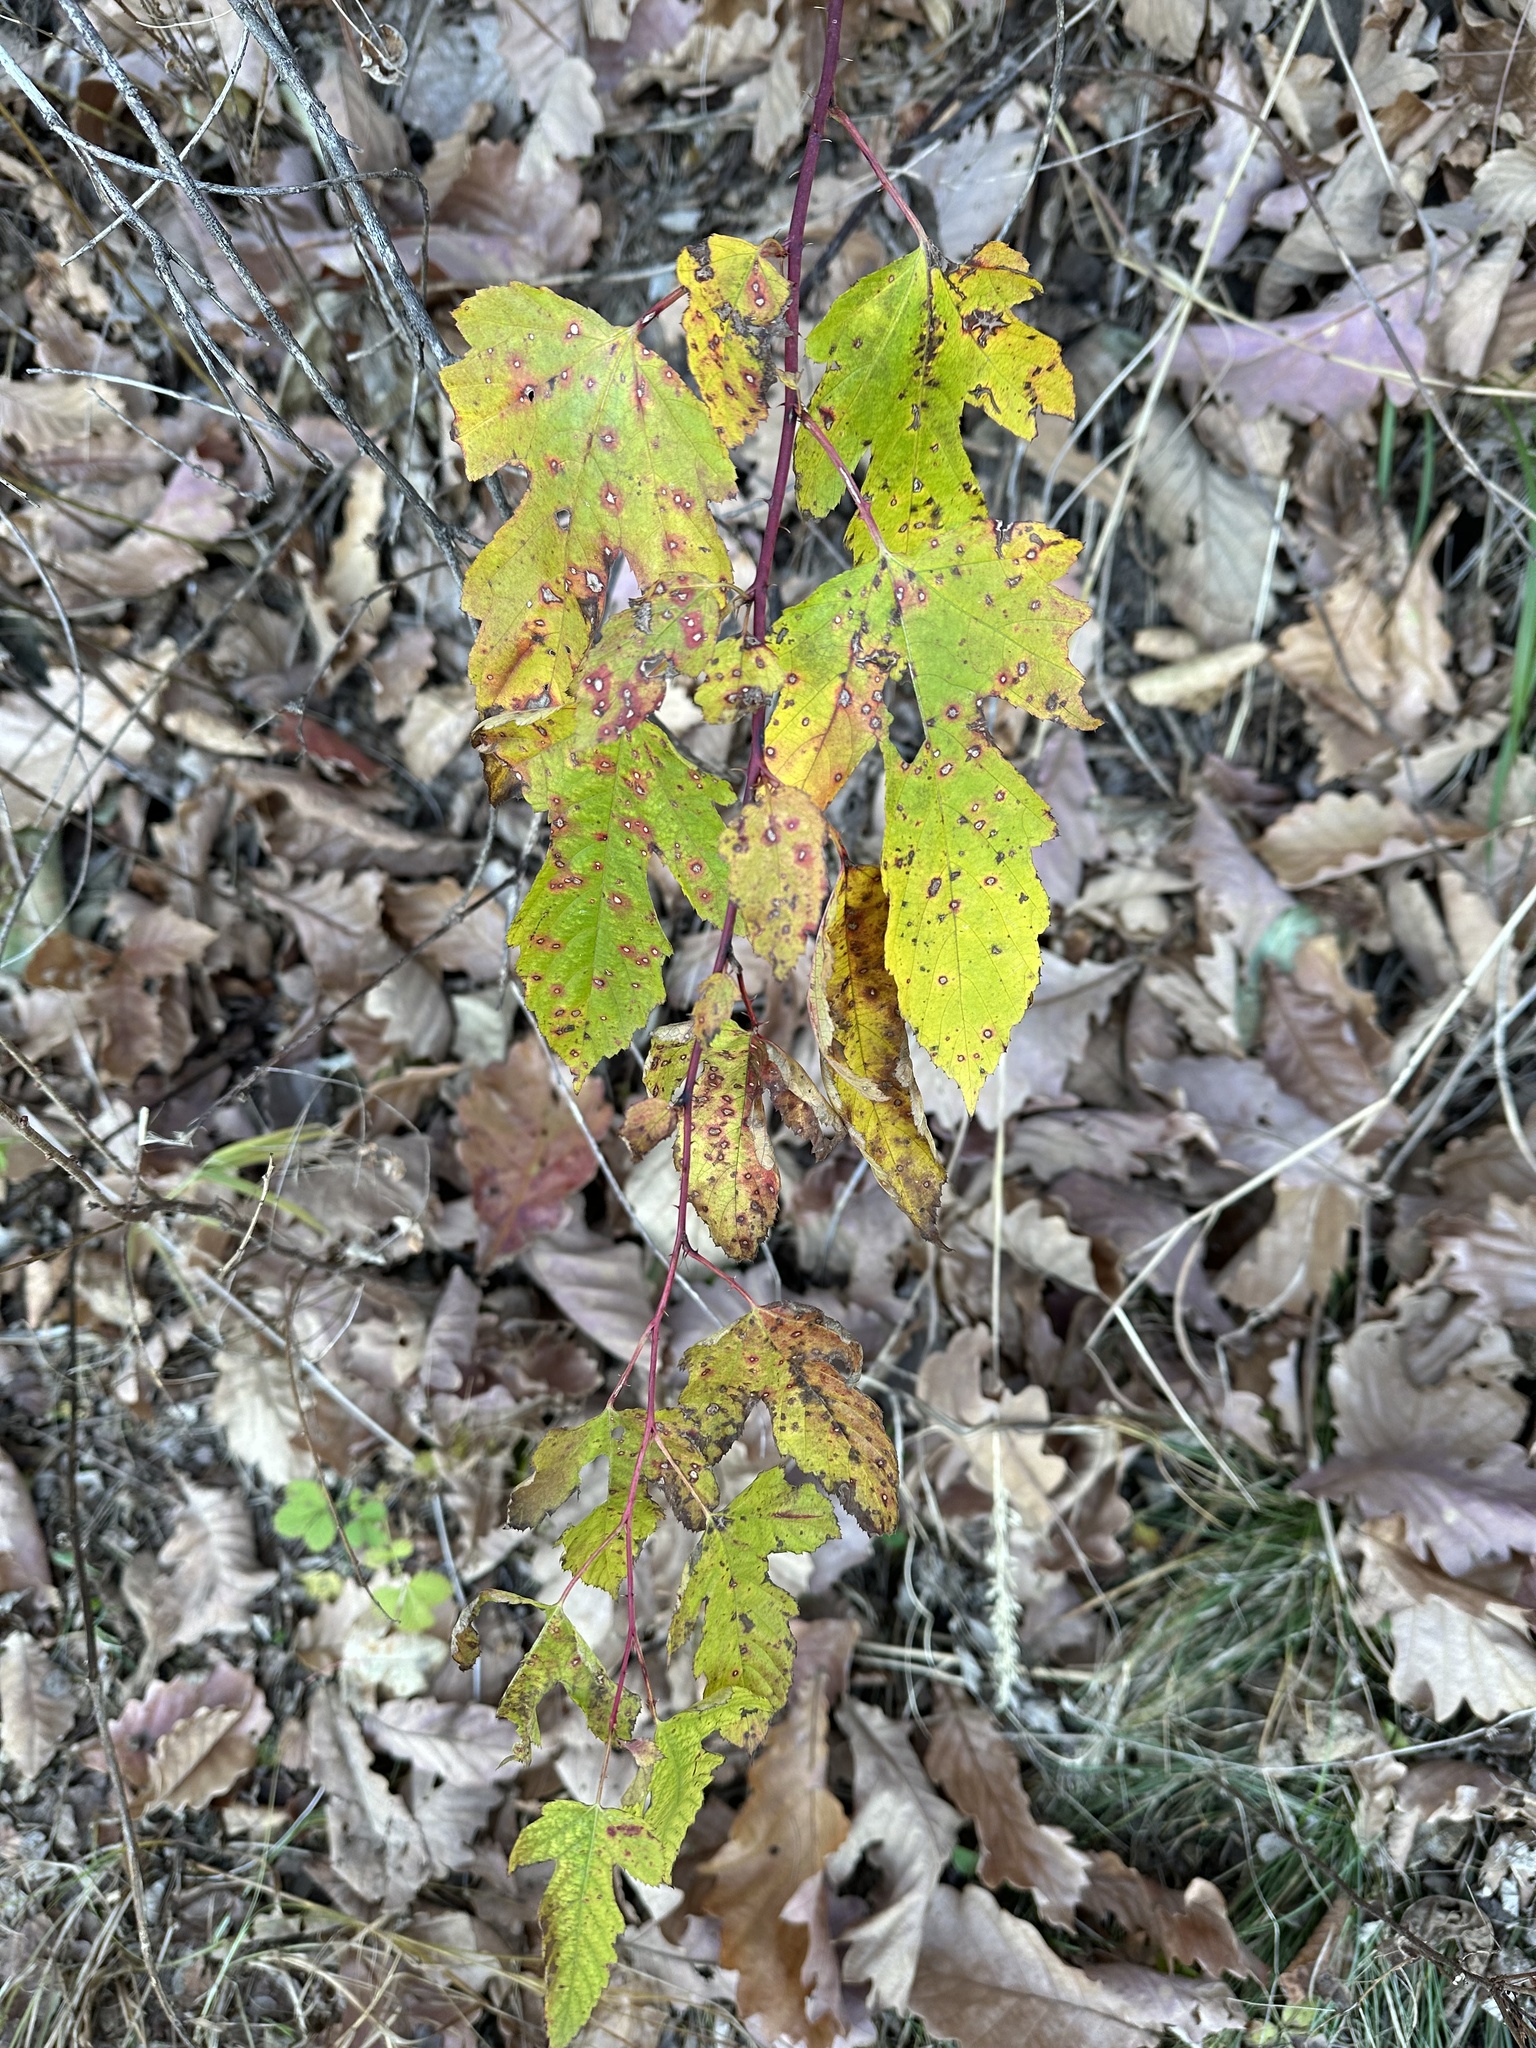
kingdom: Plantae
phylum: Tracheophyta
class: Magnoliopsida
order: Rosales
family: Rosaceae
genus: Rubus
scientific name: Rubus crataegifolius
